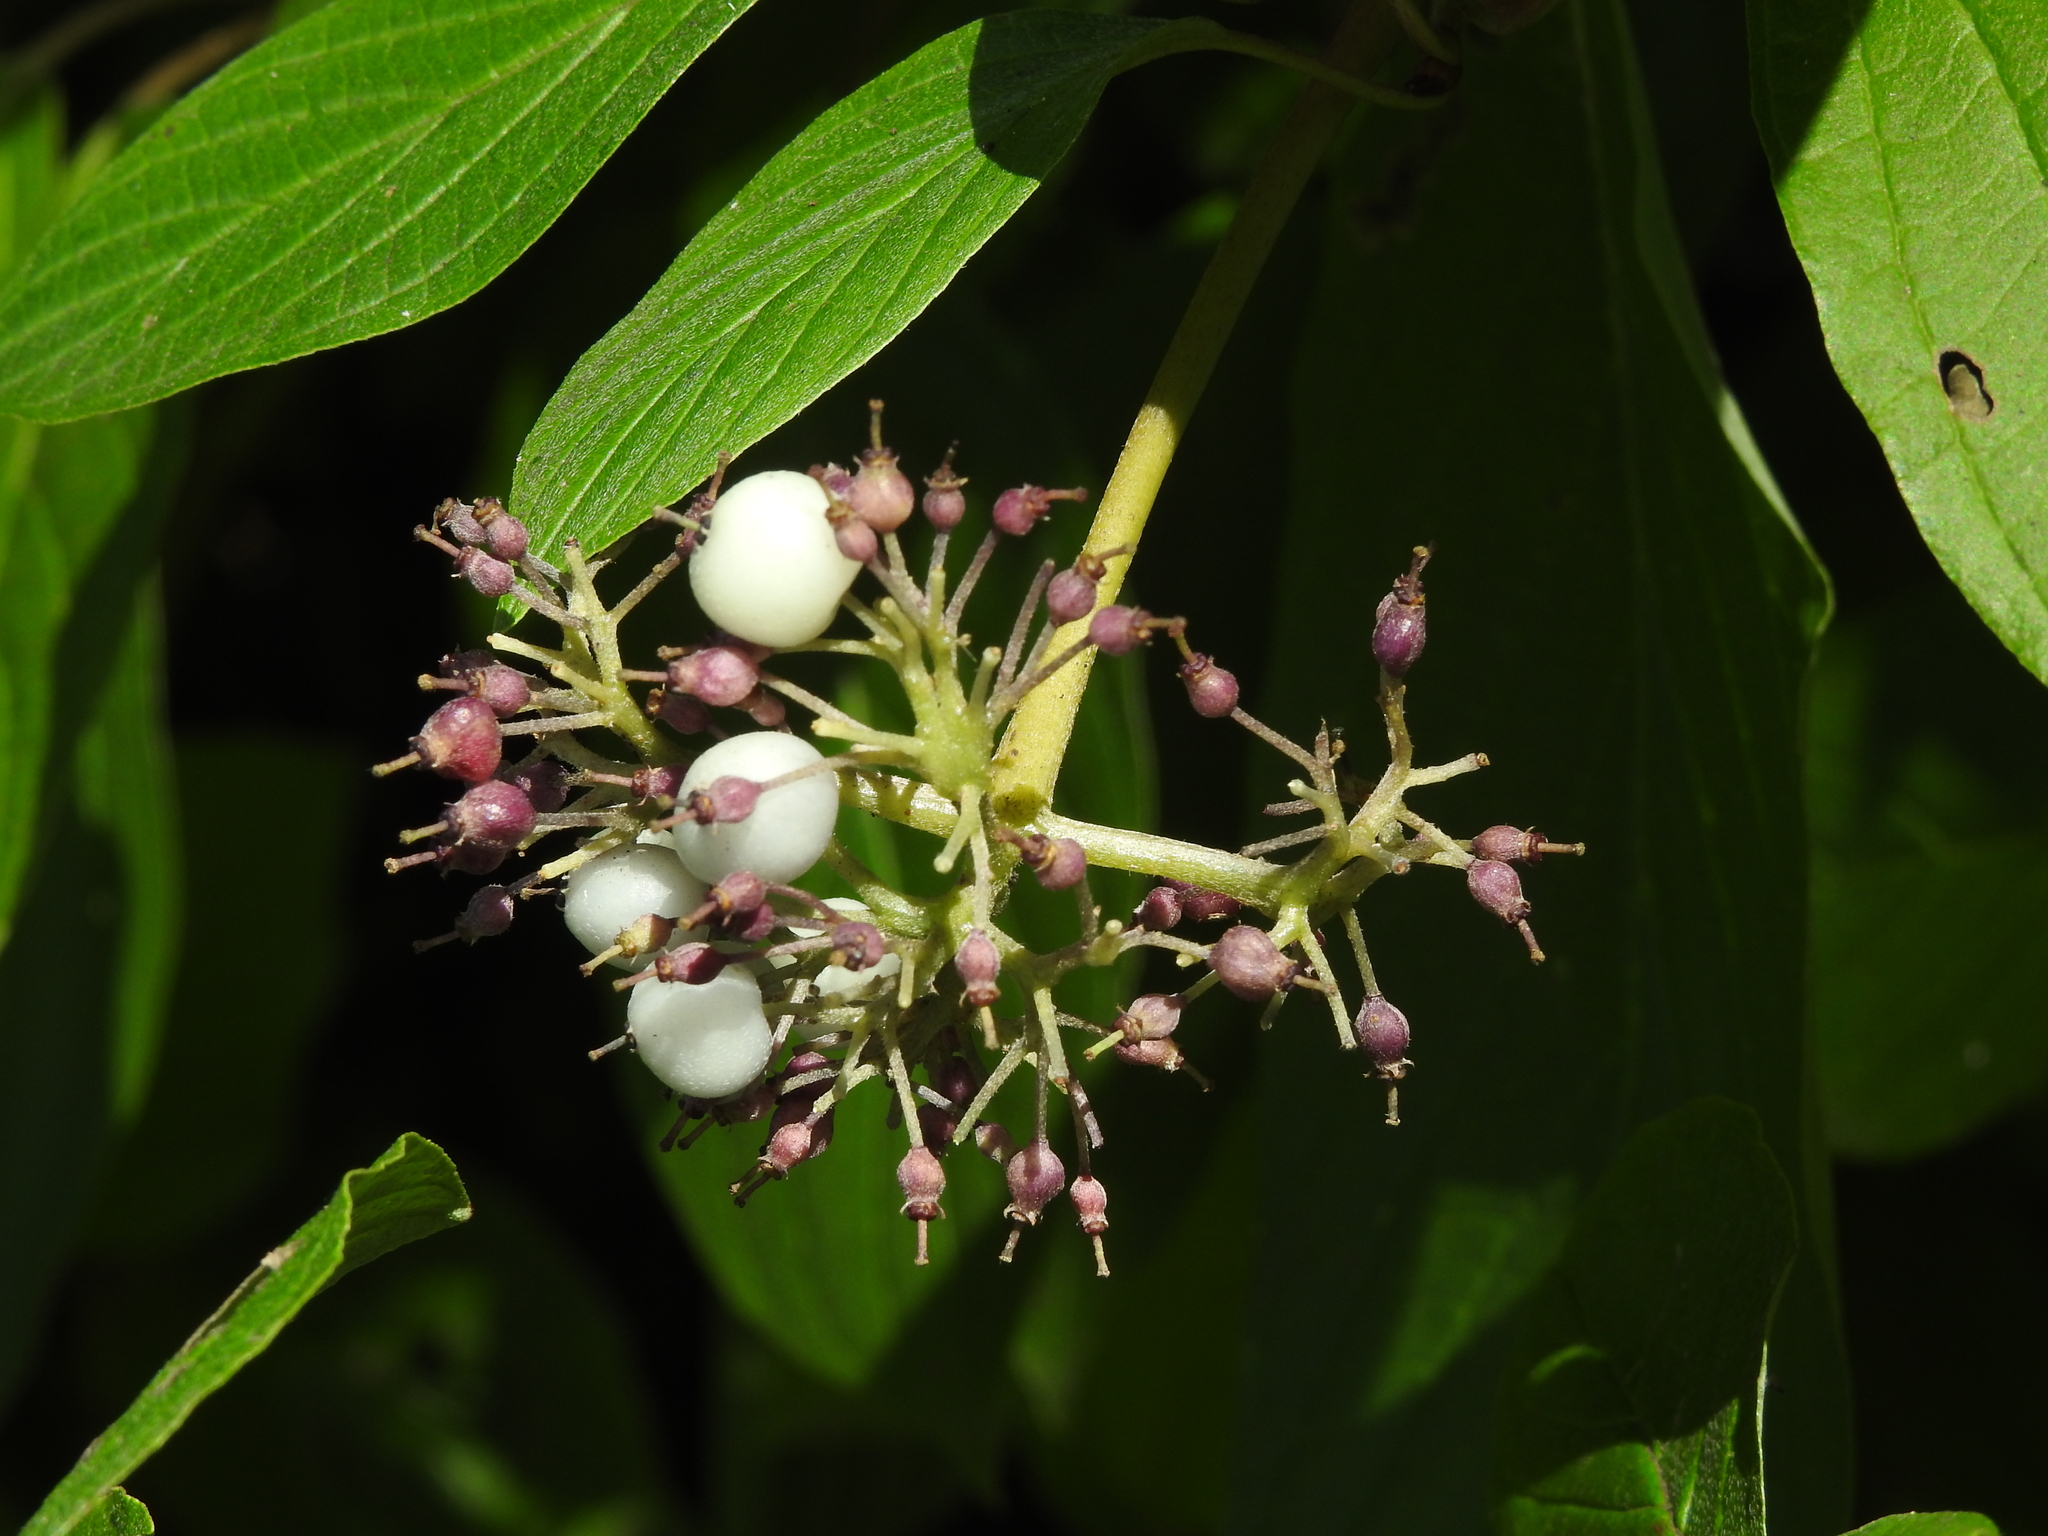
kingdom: Plantae
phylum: Tracheophyta
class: Magnoliopsida
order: Cornales
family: Cornaceae
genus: Cornus
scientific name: Cornus sericea
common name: Red-osier dogwood
